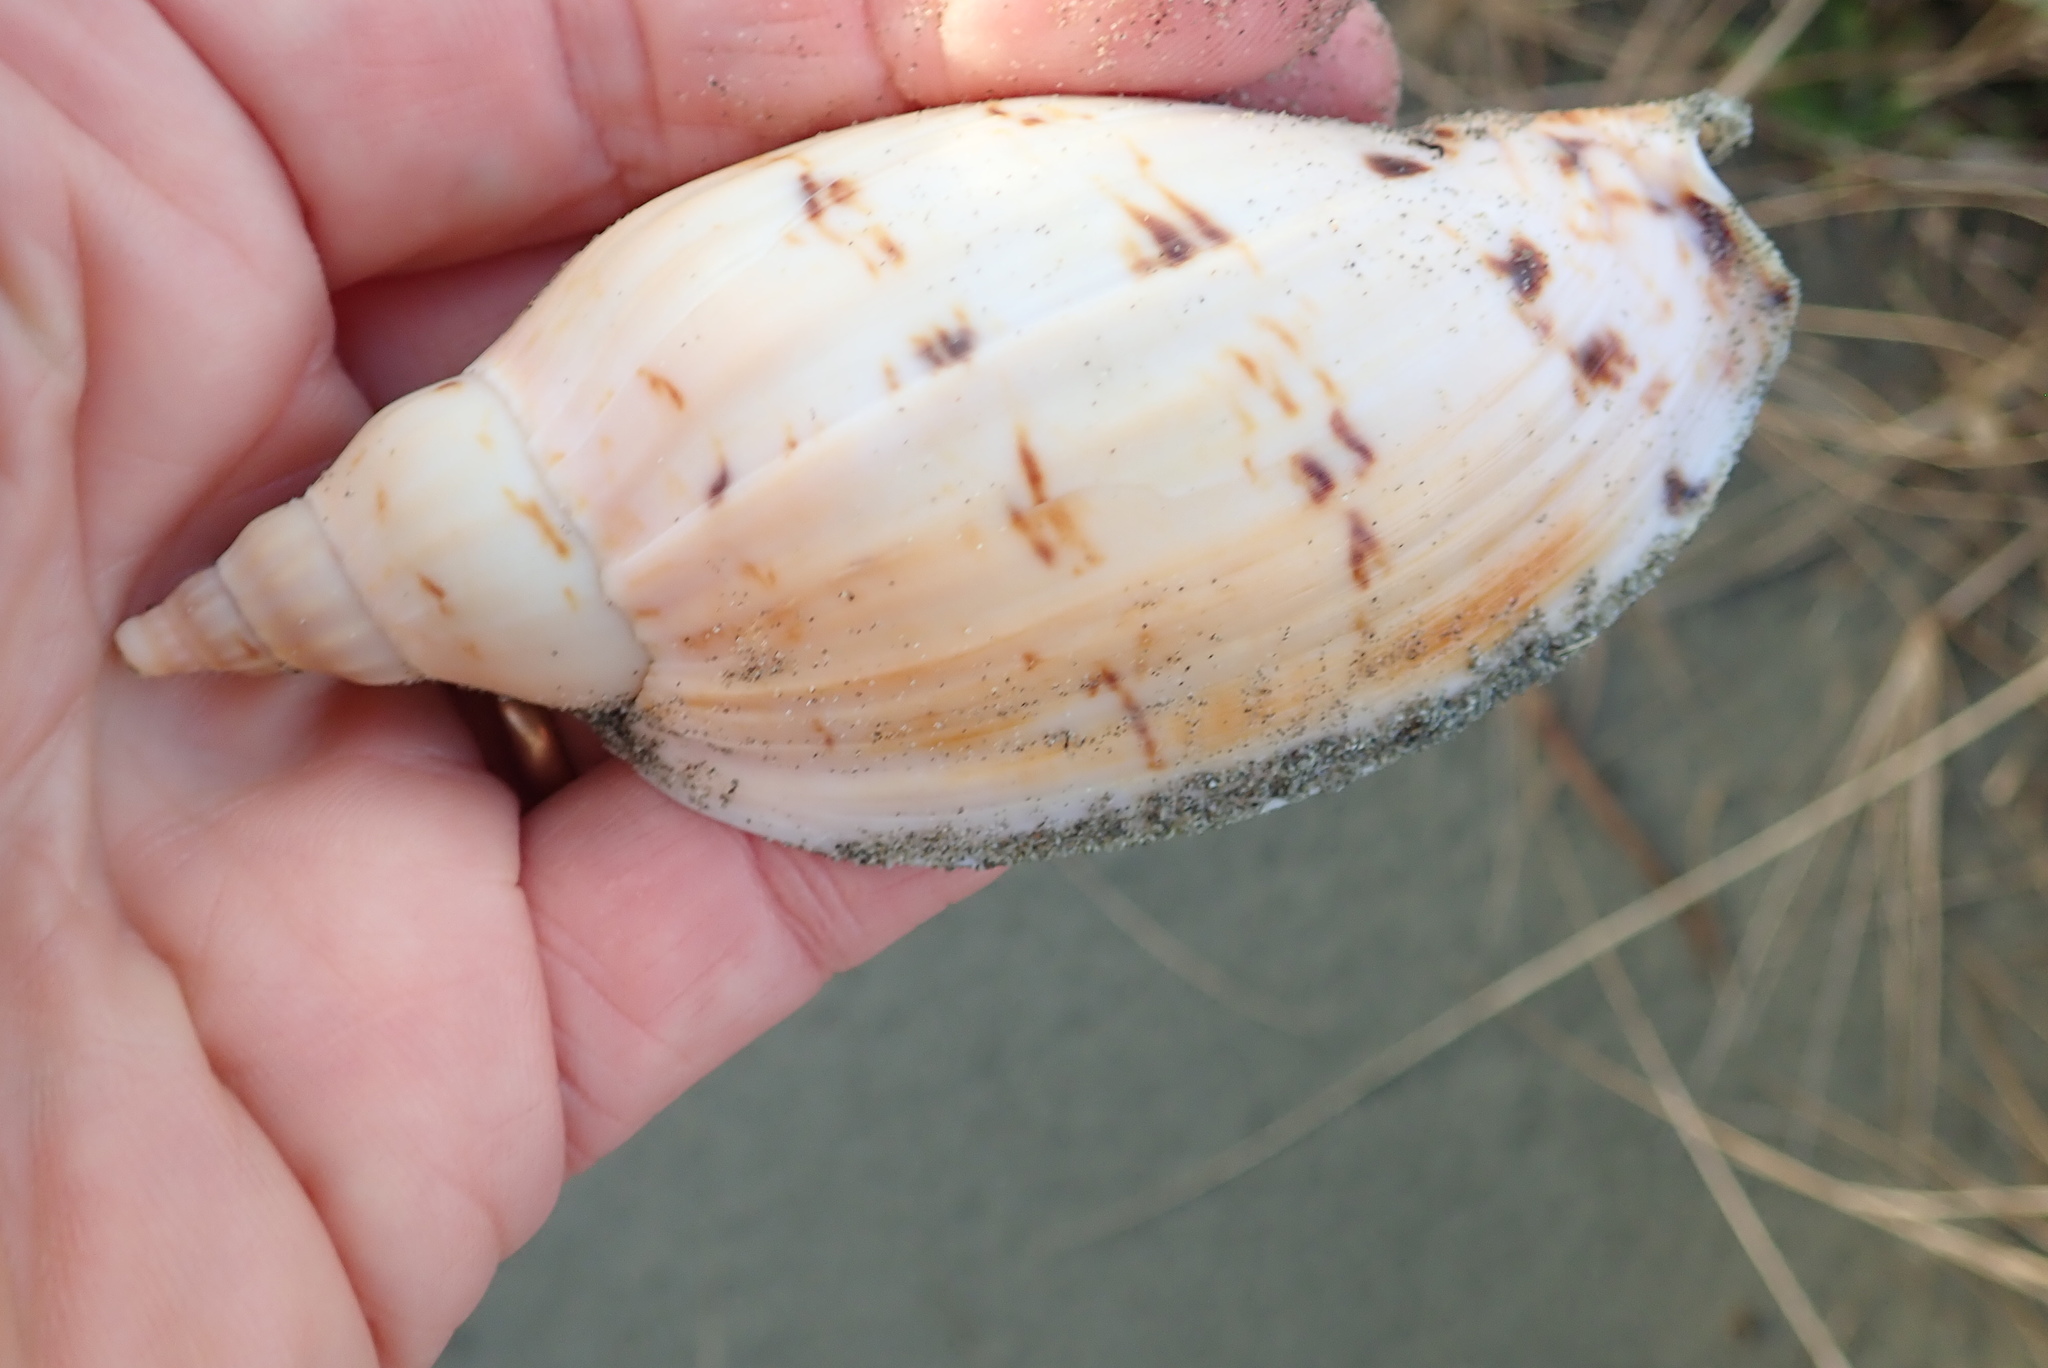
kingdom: Animalia
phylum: Mollusca
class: Gastropoda
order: Neogastropoda
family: Volutidae
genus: Alcithoe
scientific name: Alcithoe arabica
